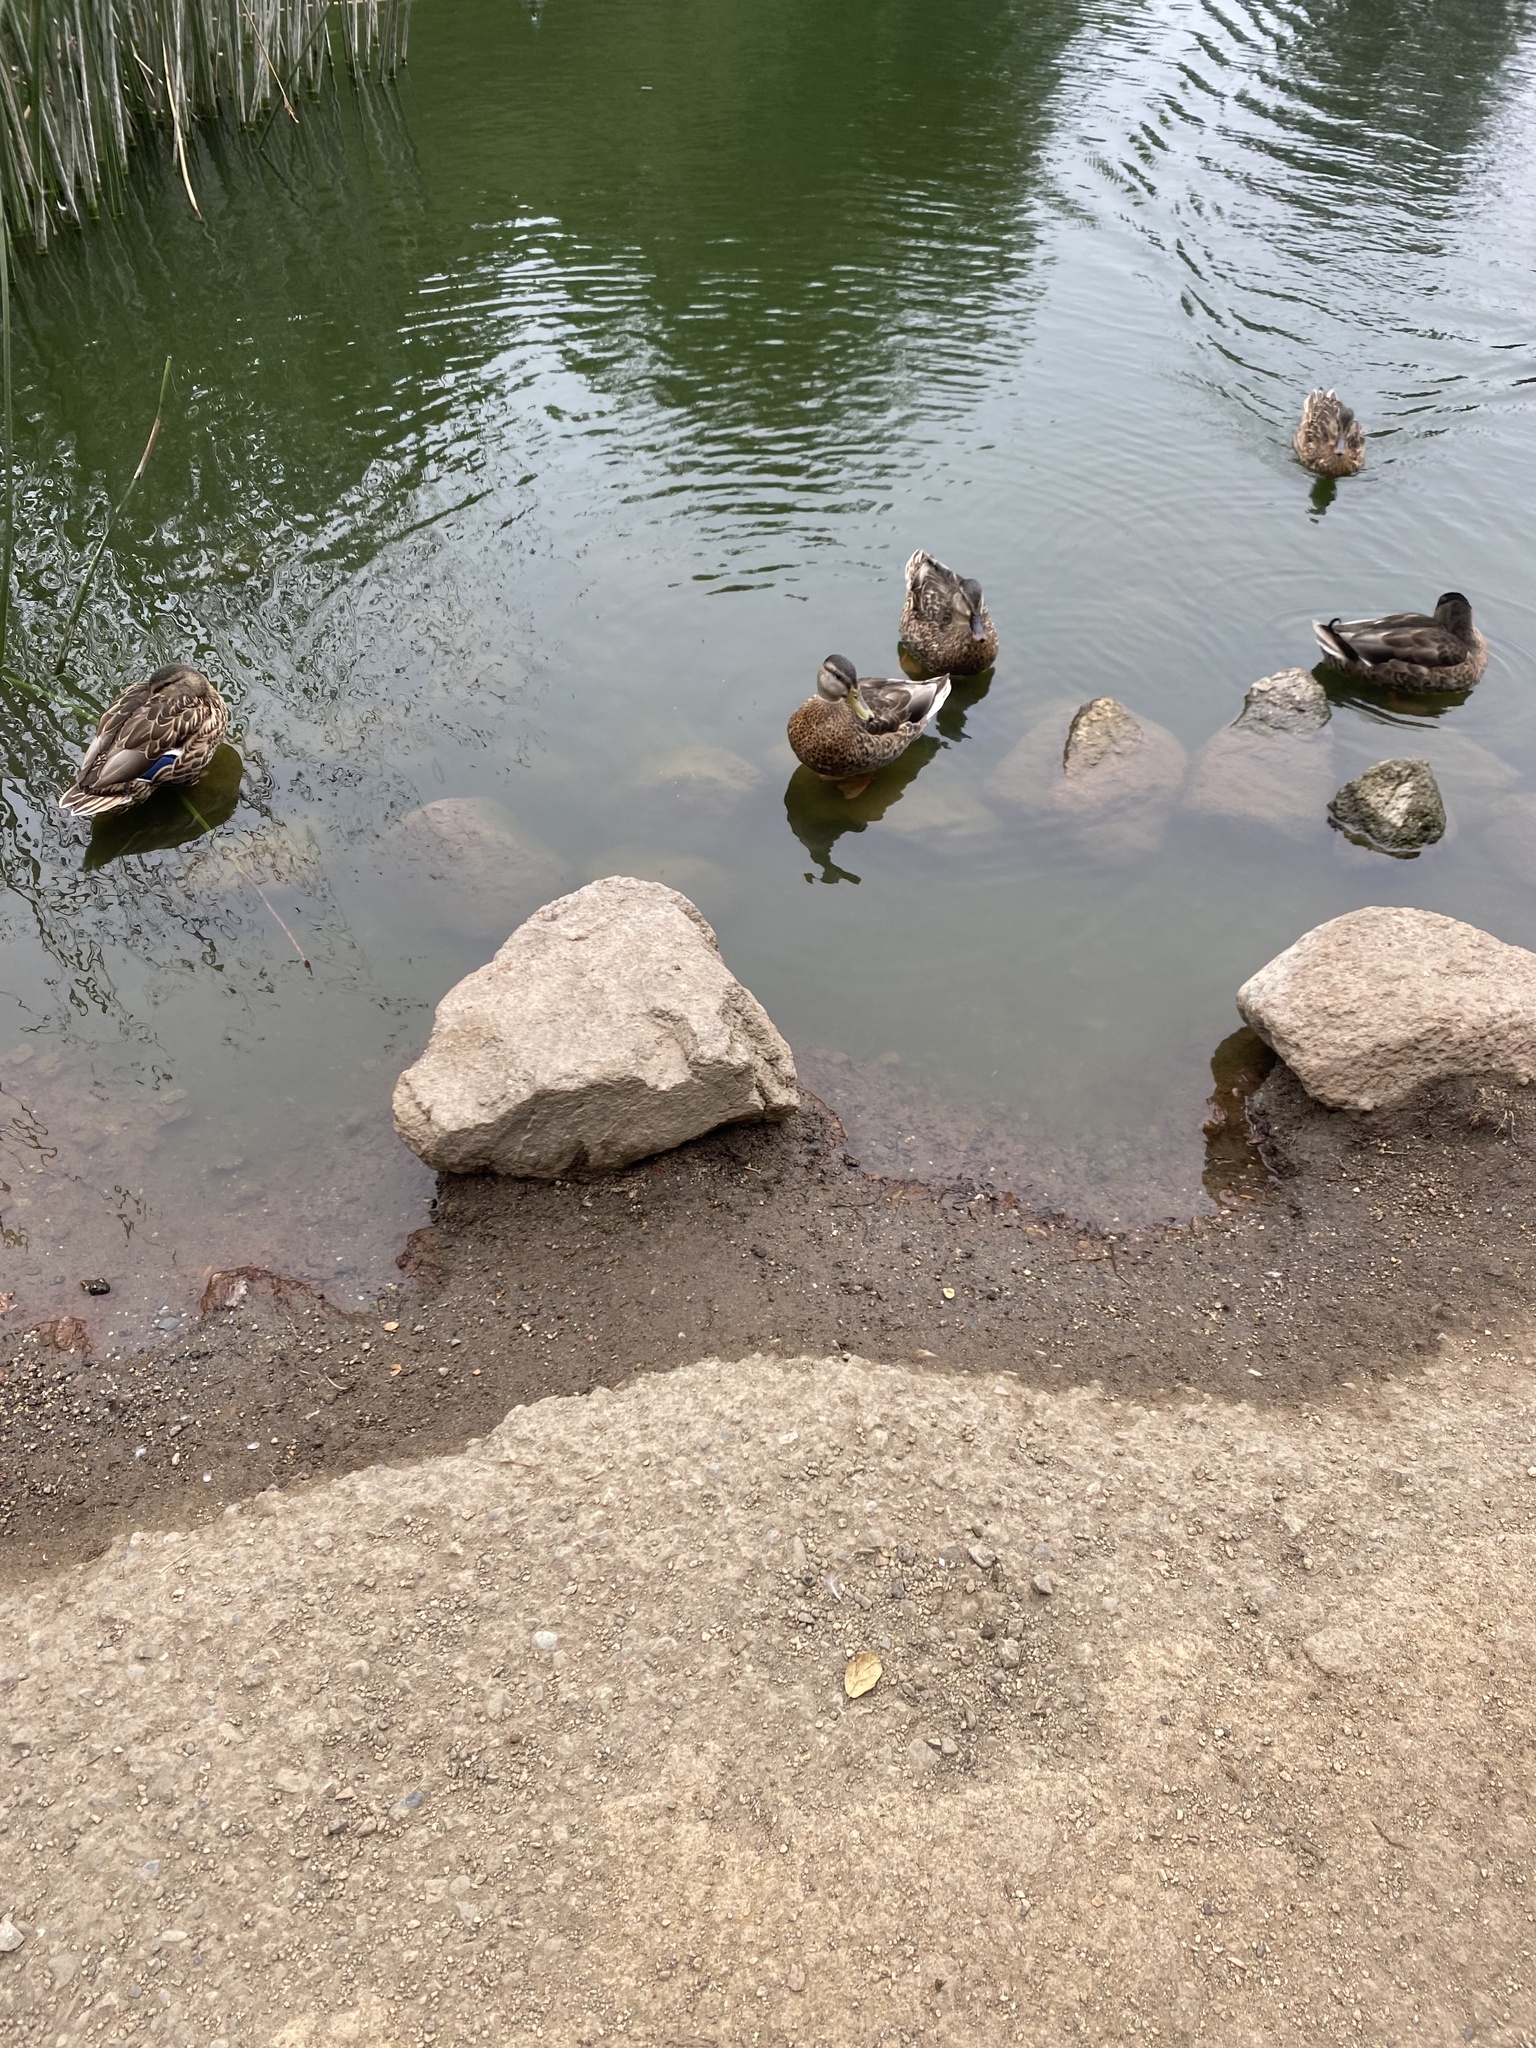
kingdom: Animalia
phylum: Chordata
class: Aves
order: Anseriformes
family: Anatidae
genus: Anas
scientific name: Anas platyrhynchos
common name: Mallard
